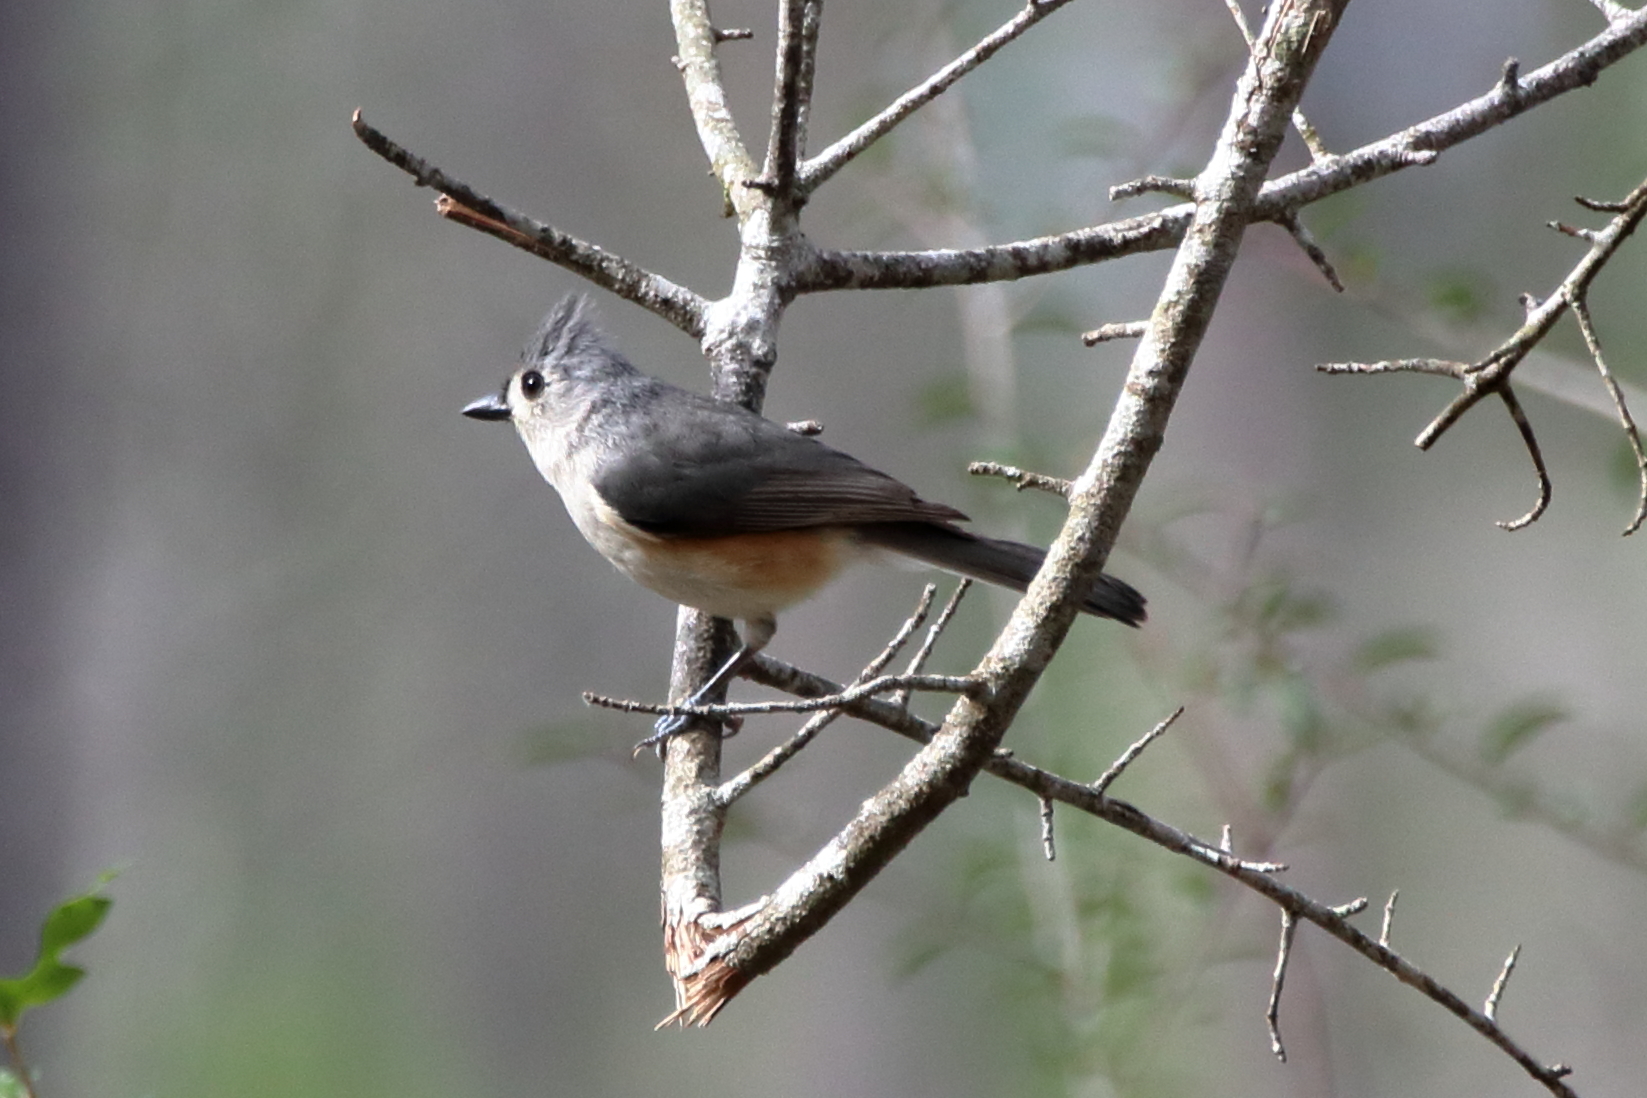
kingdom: Animalia
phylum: Chordata
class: Aves
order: Passeriformes
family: Paridae
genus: Baeolophus
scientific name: Baeolophus bicolor
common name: Tufted titmouse
